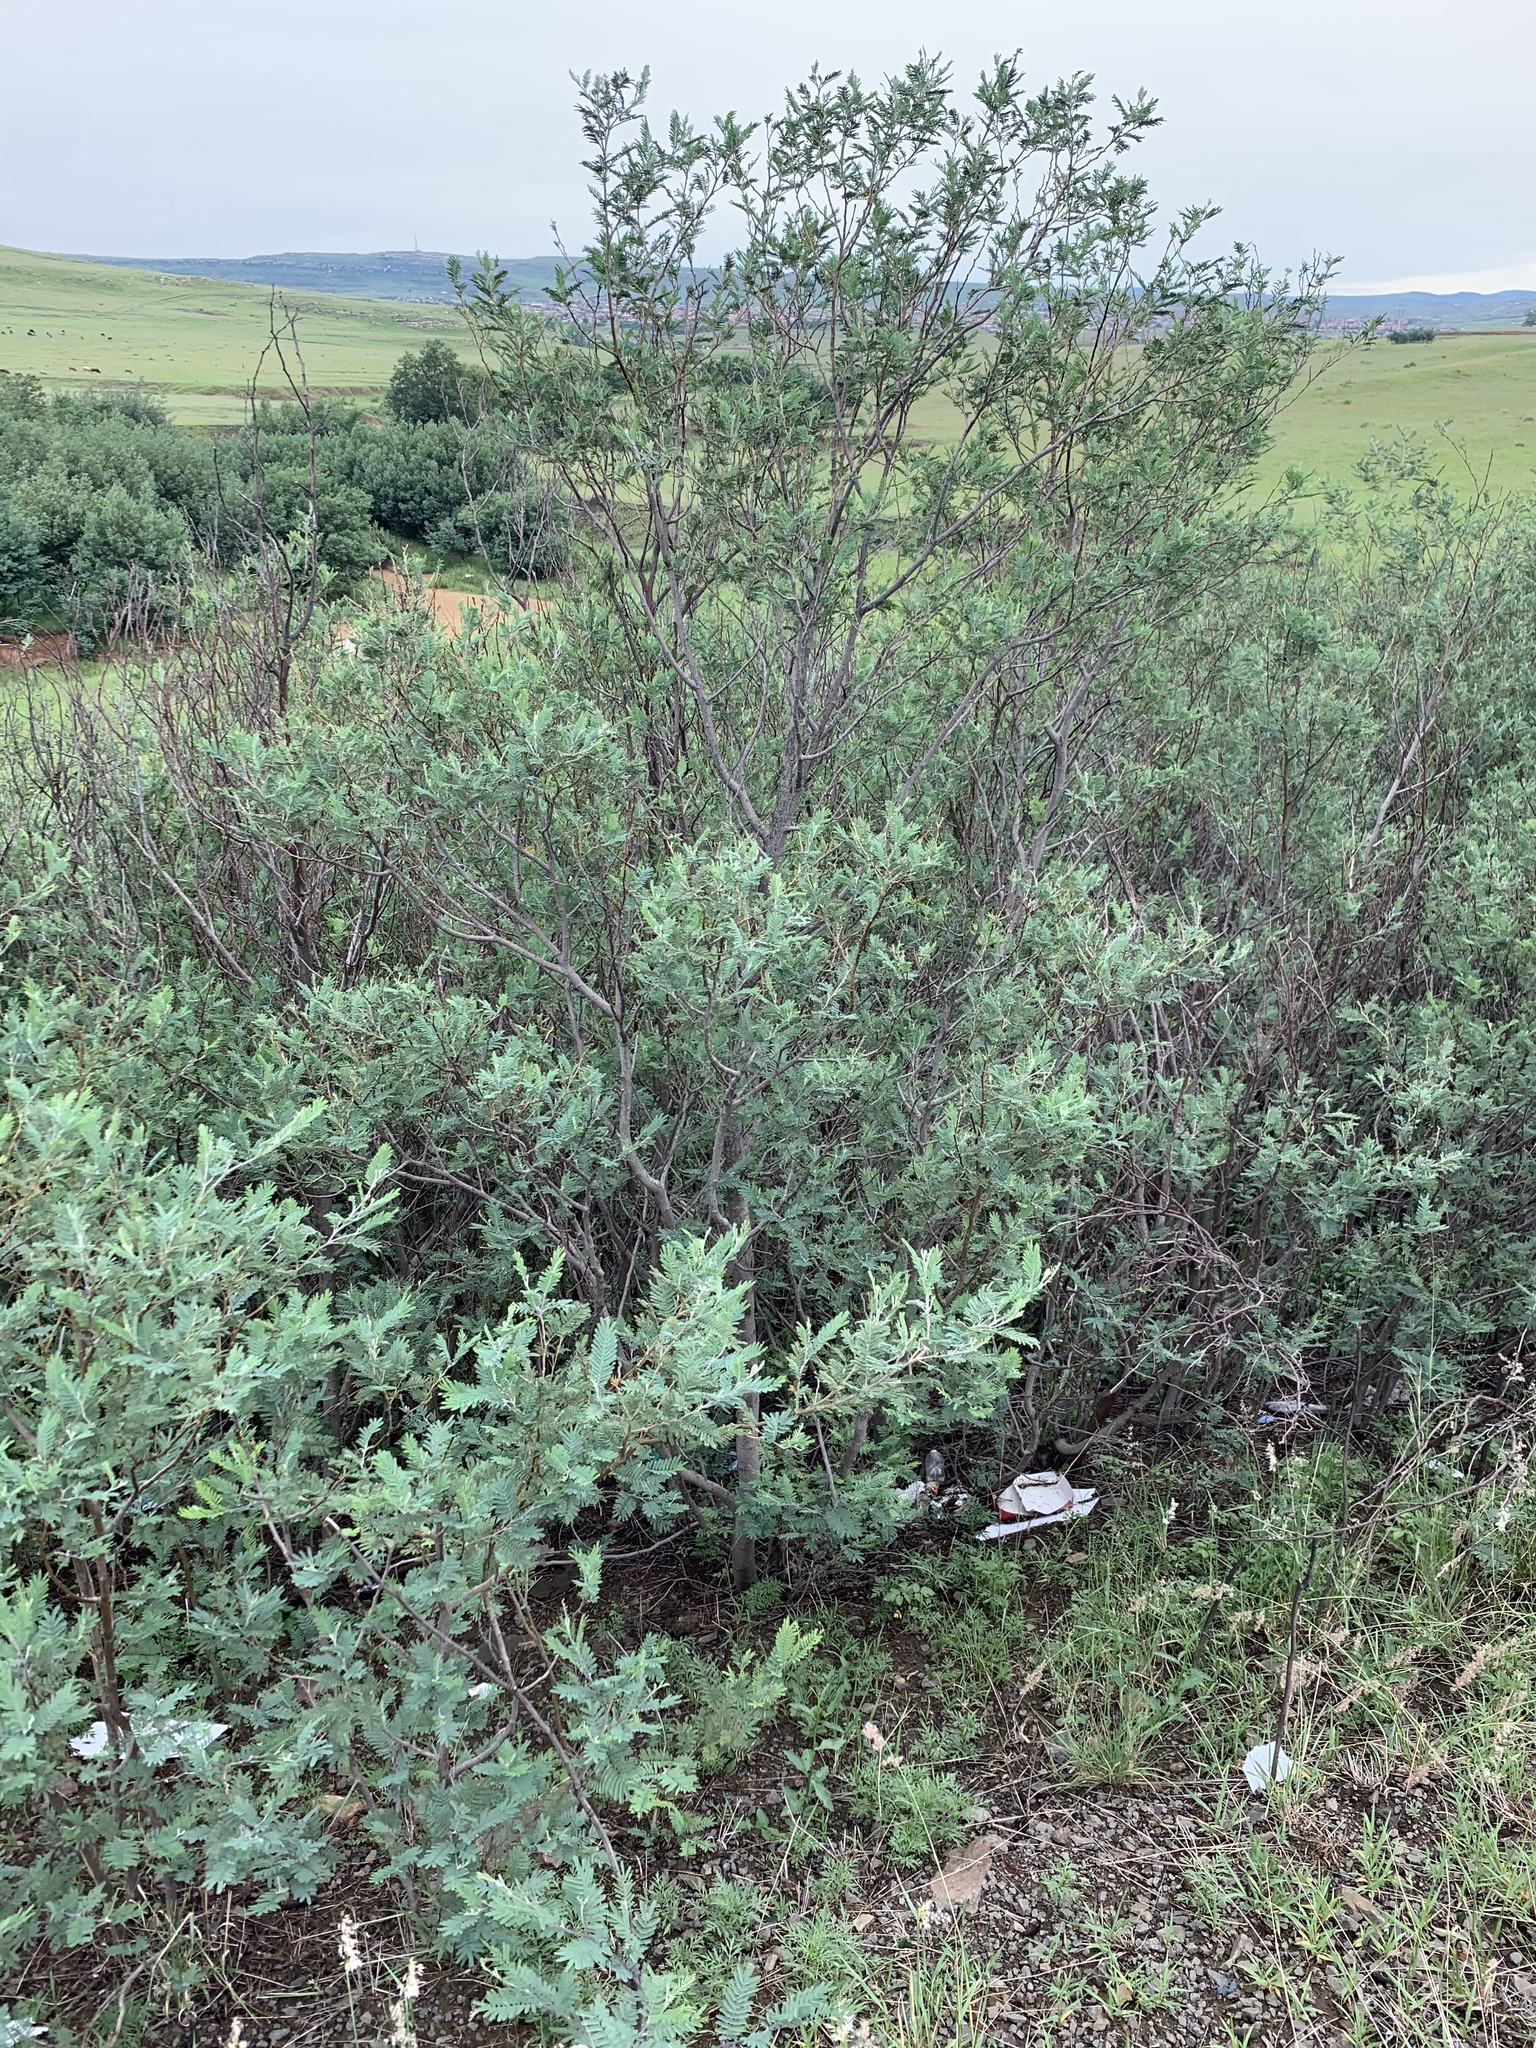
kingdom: Plantae
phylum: Tracheophyta
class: Magnoliopsida
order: Fabales
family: Fabaceae
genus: Acacia
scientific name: Acacia dealbata
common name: Silver wattle
